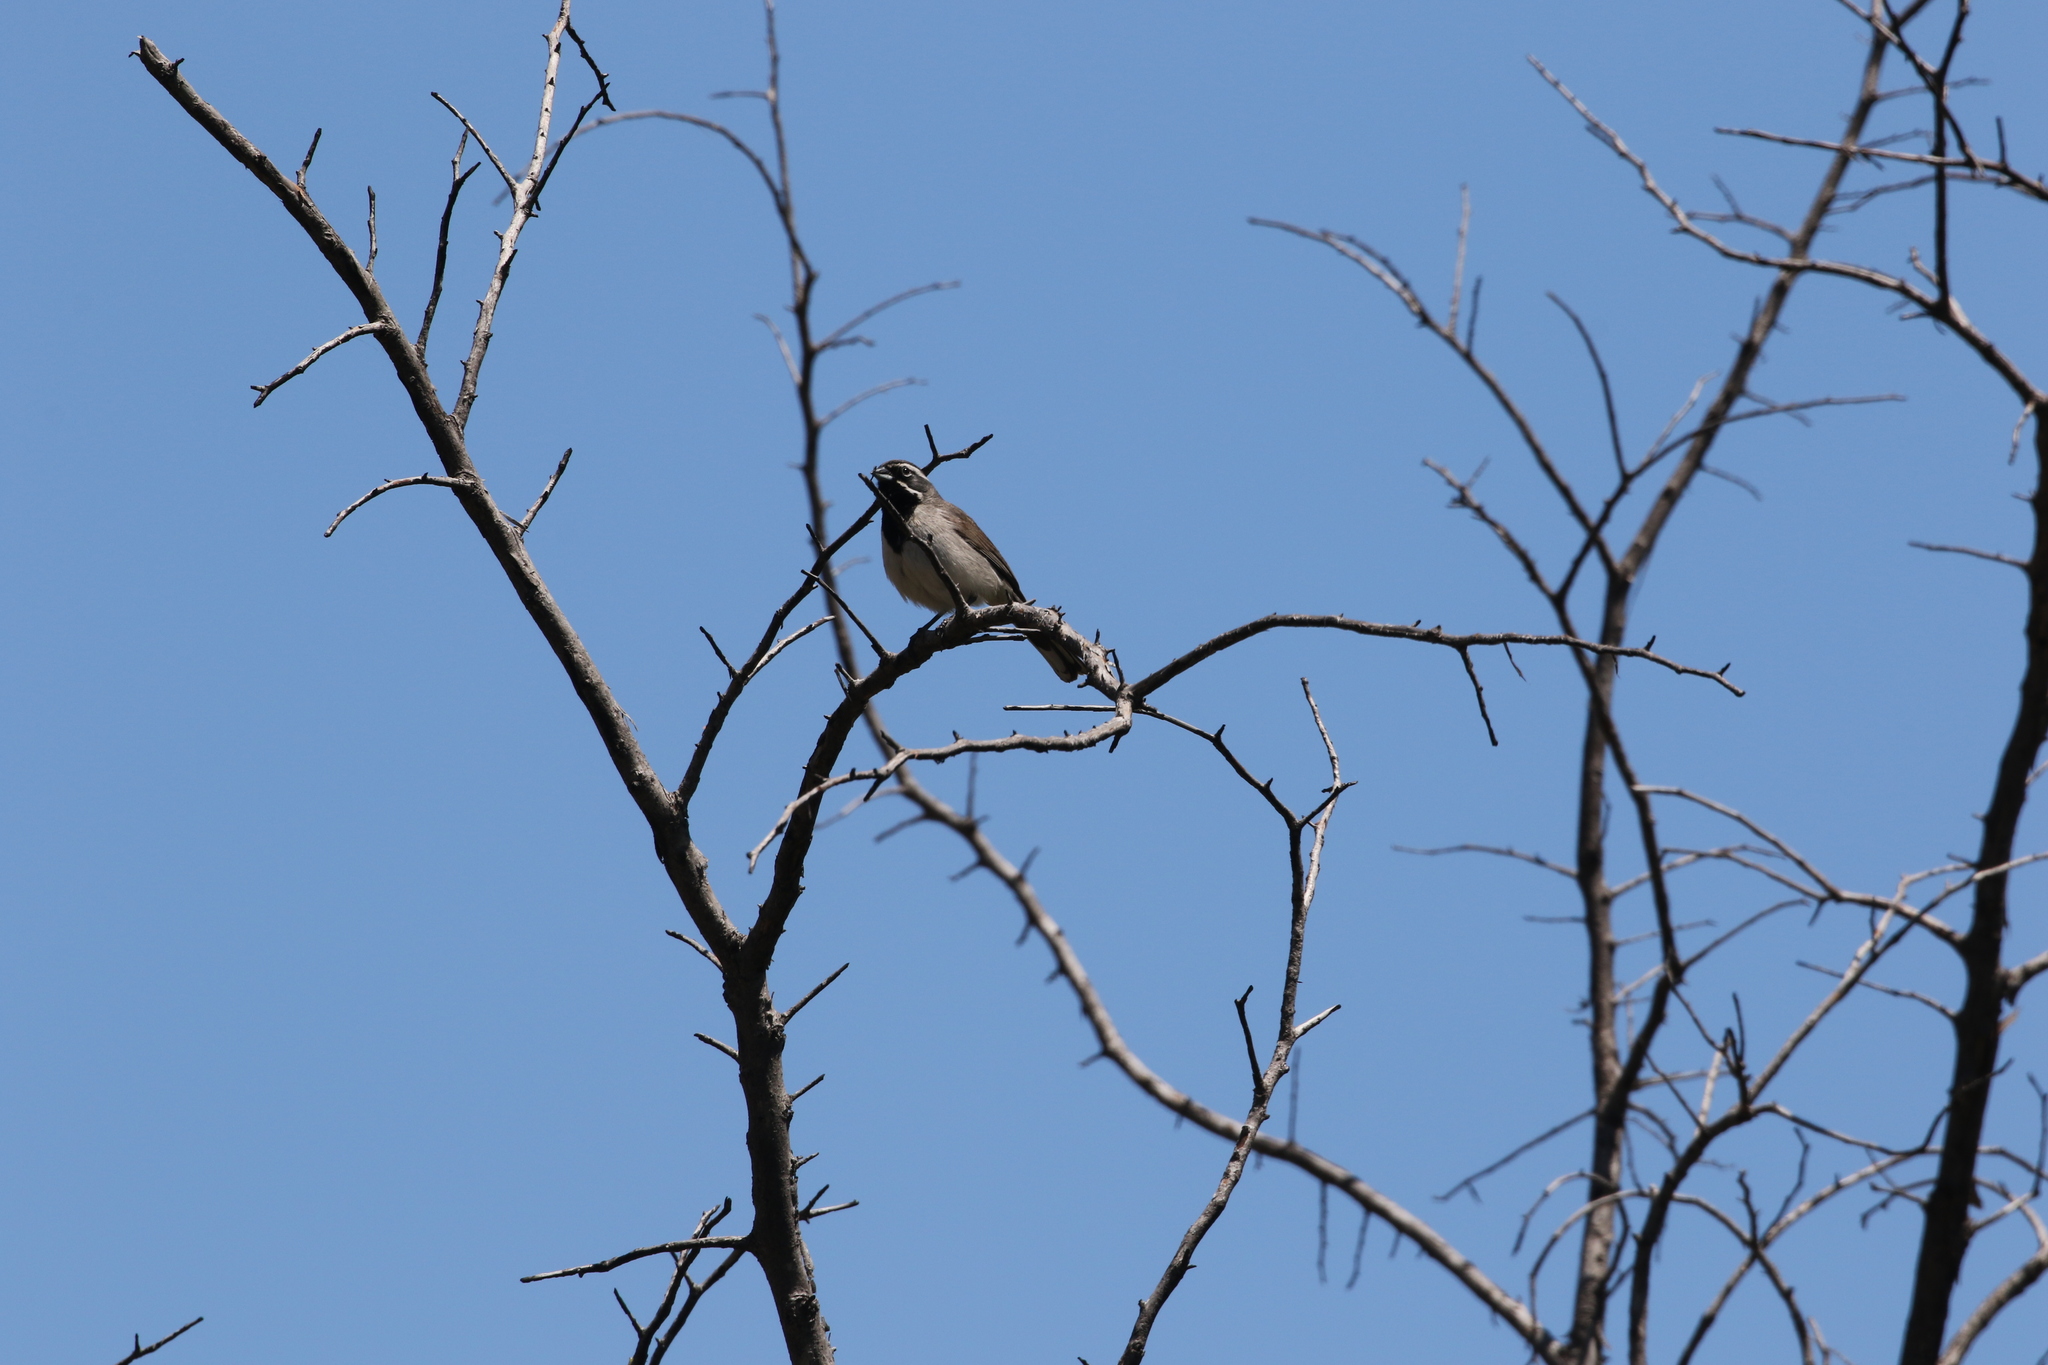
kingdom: Animalia
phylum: Chordata
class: Aves
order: Passeriformes
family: Passerellidae
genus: Amphispiza
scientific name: Amphispiza bilineata
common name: Black-throated sparrow
